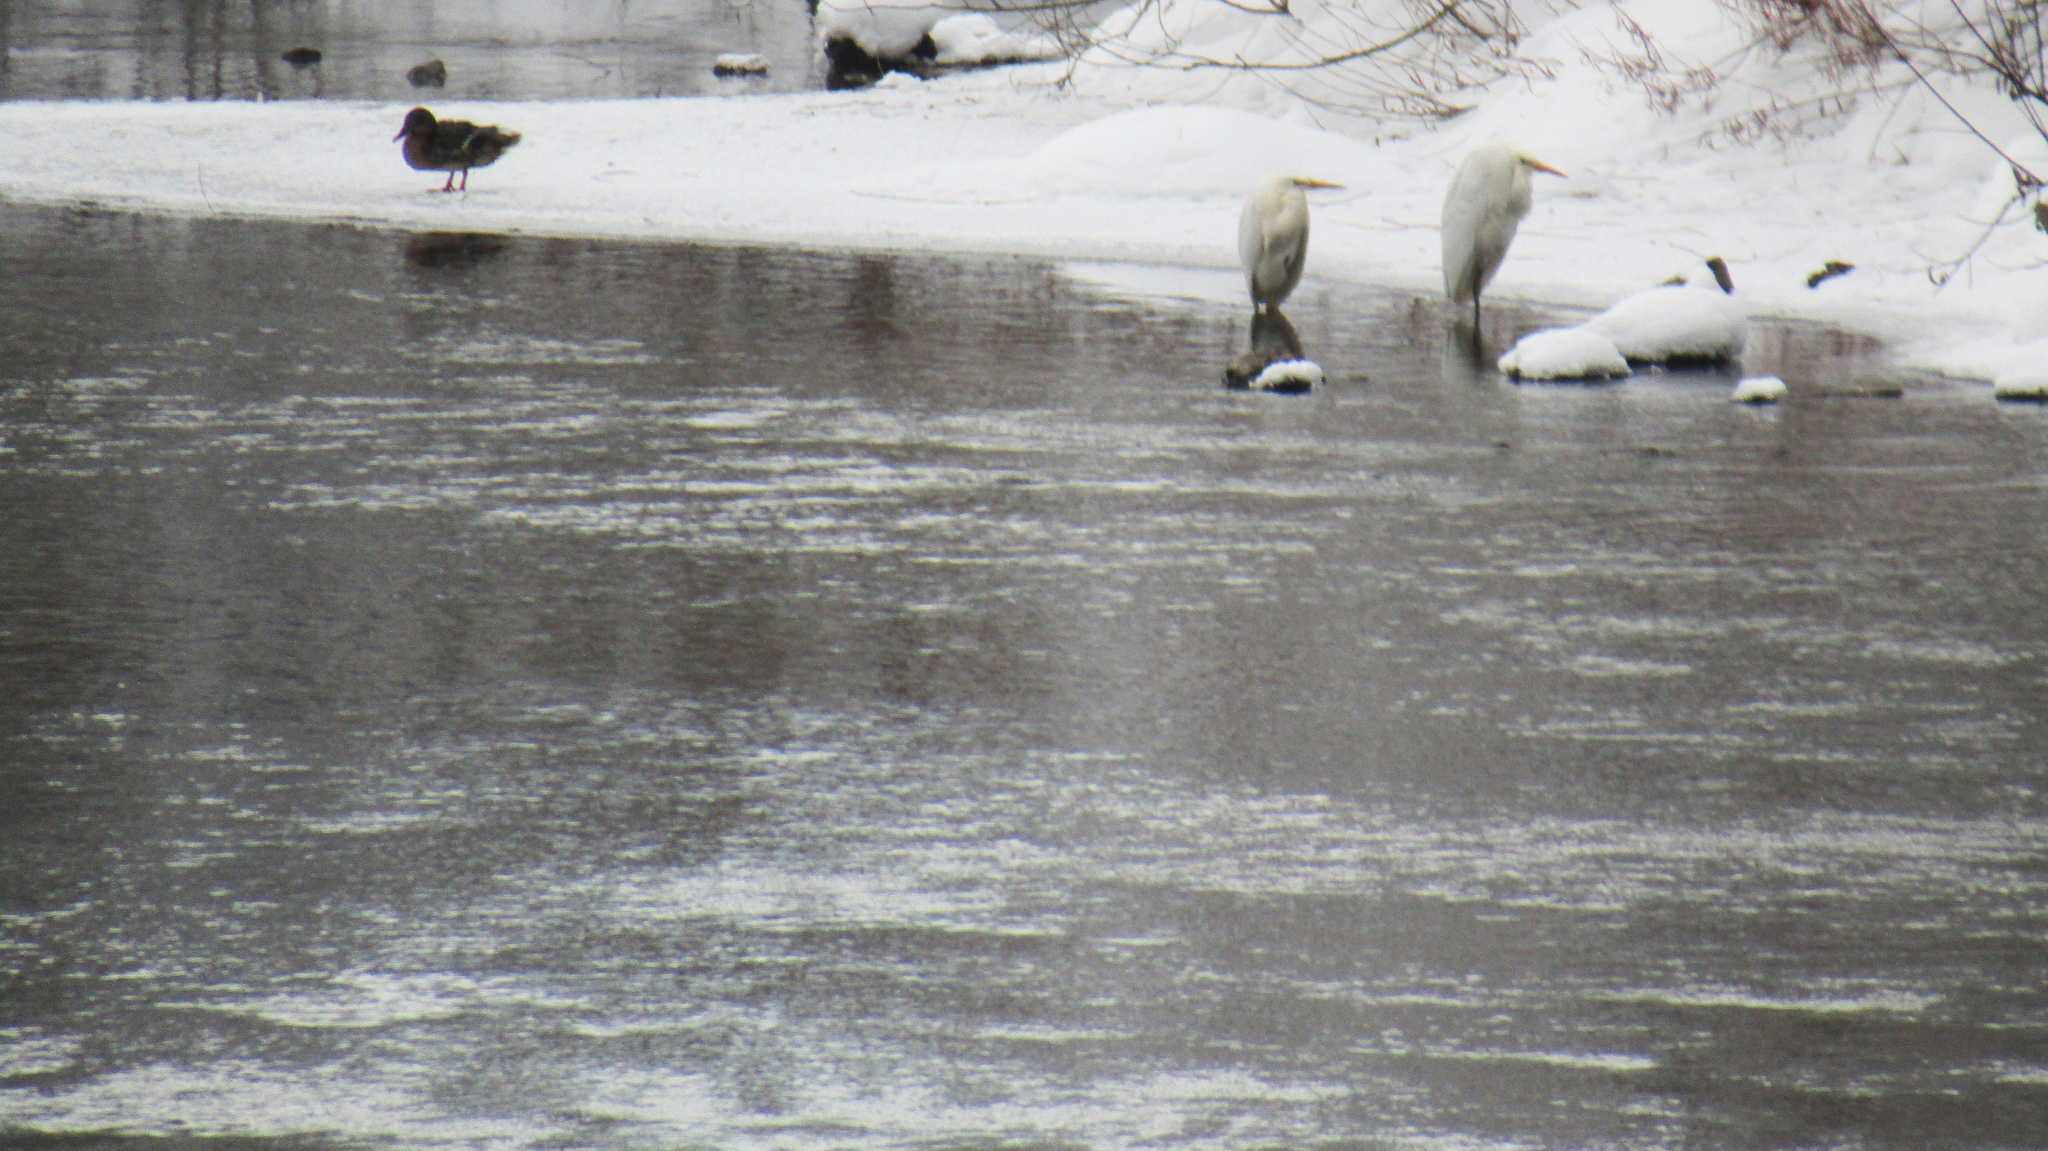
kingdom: Animalia
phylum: Chordata
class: Aves
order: Pelecaniformes
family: Ardeidae
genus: Ardea
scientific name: Ardea alba
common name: Great egret
